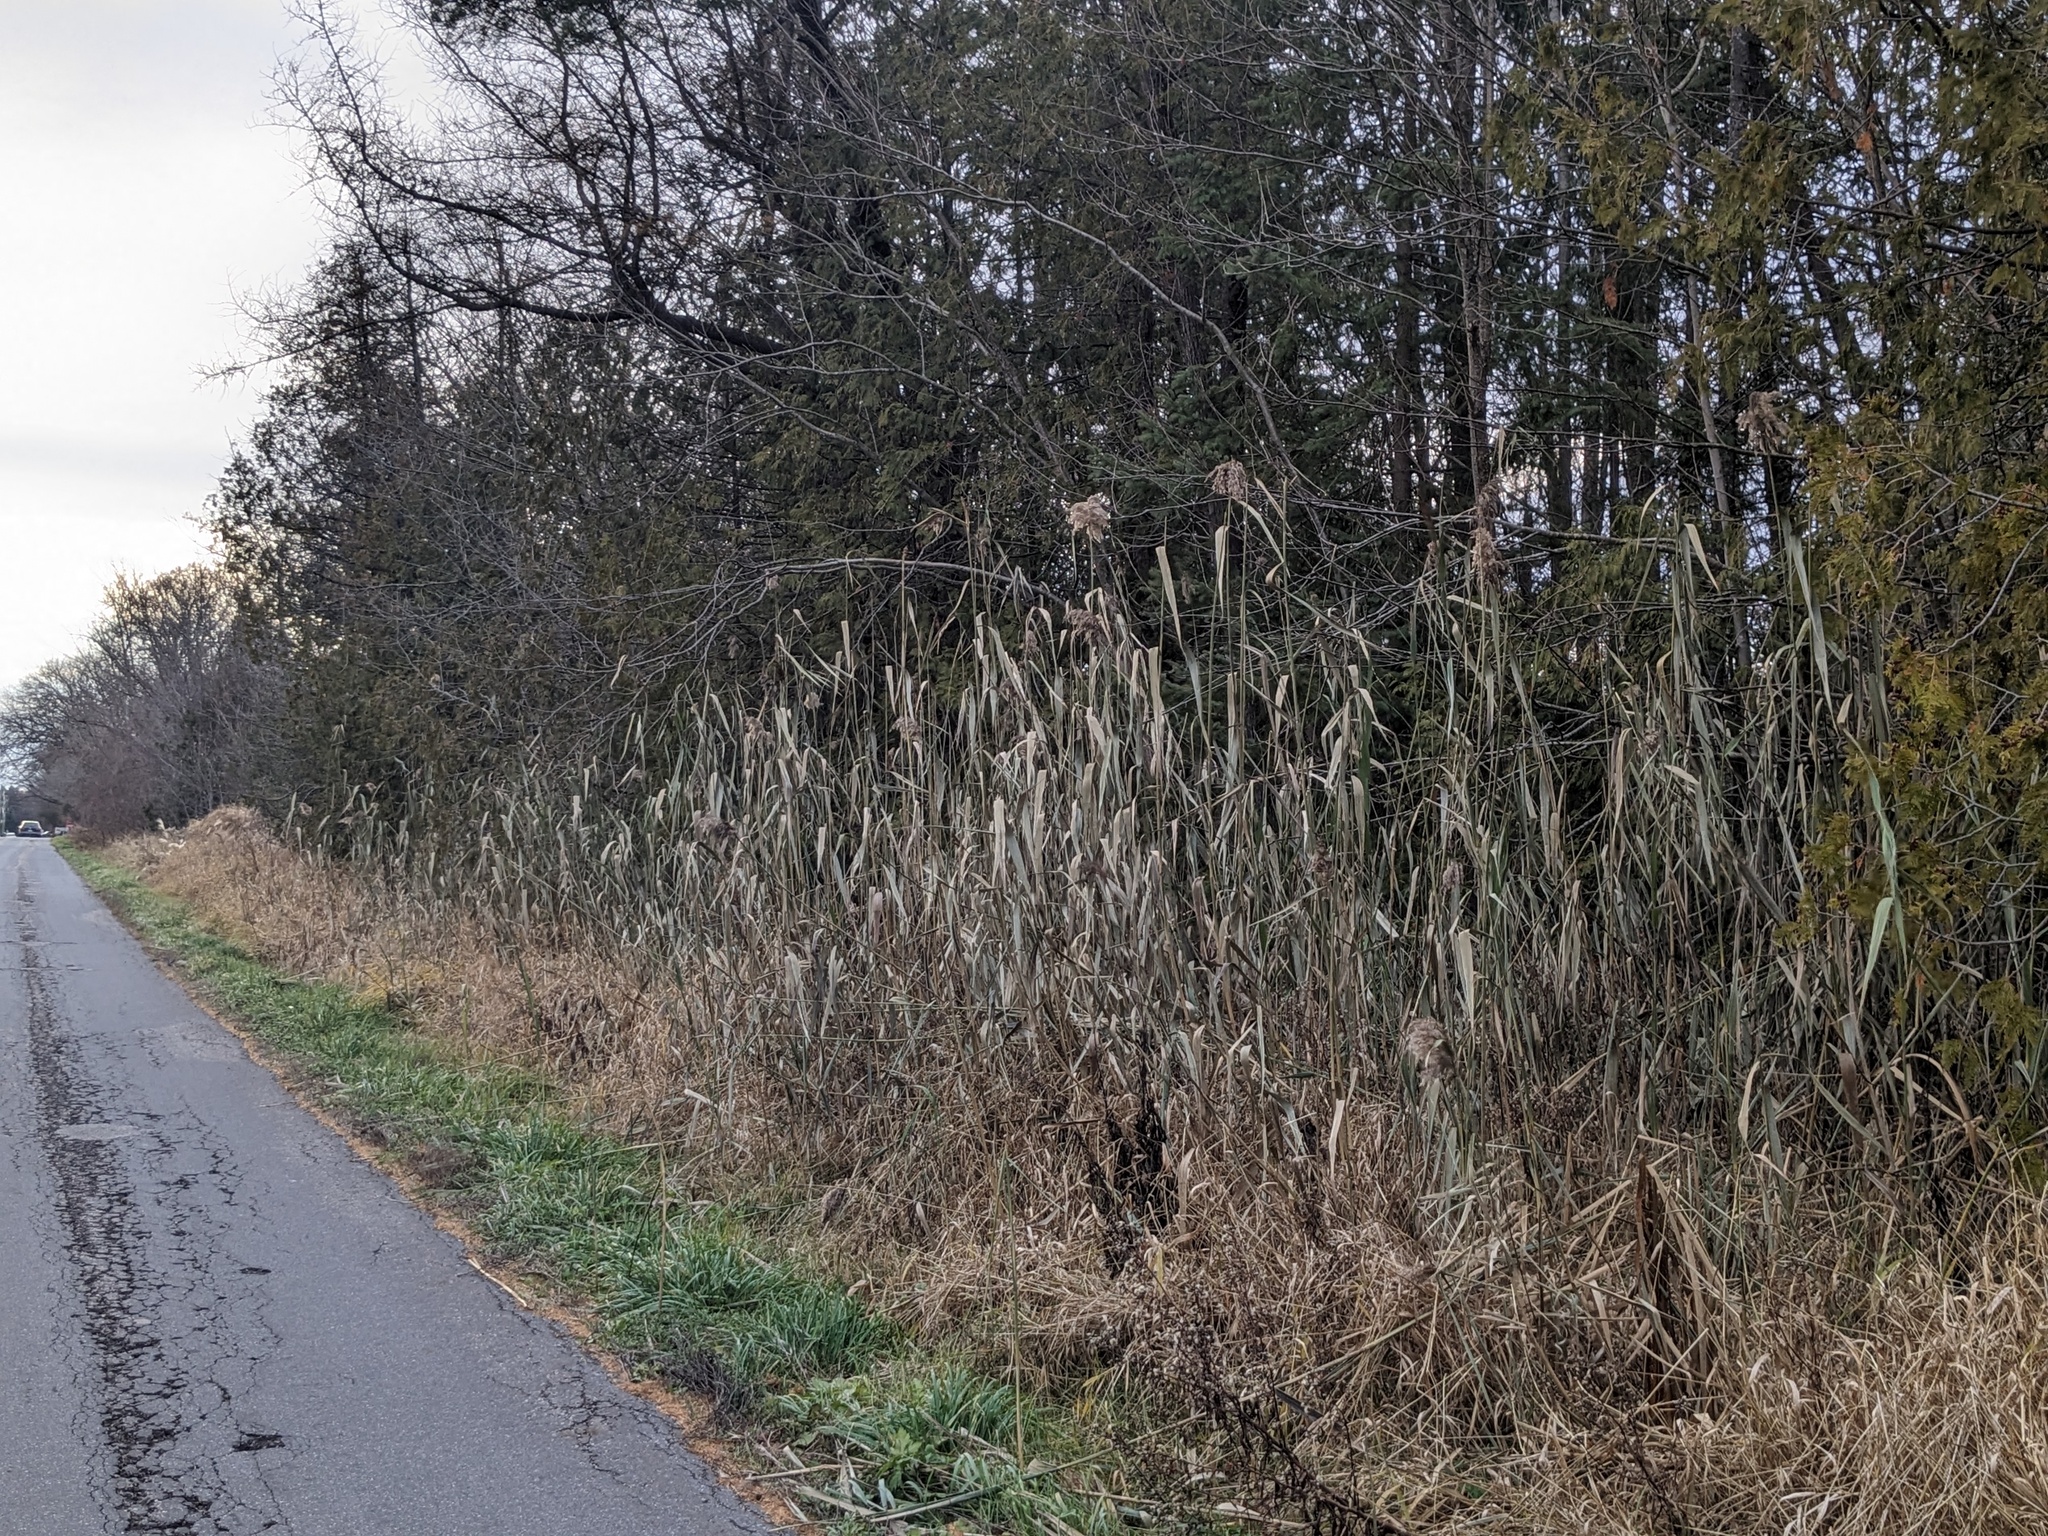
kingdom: Plantae
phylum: Tracheophyta
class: Liliopsida
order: Poales
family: Poaceae
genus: Phragmites
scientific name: Phragmites australis
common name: Common reed
